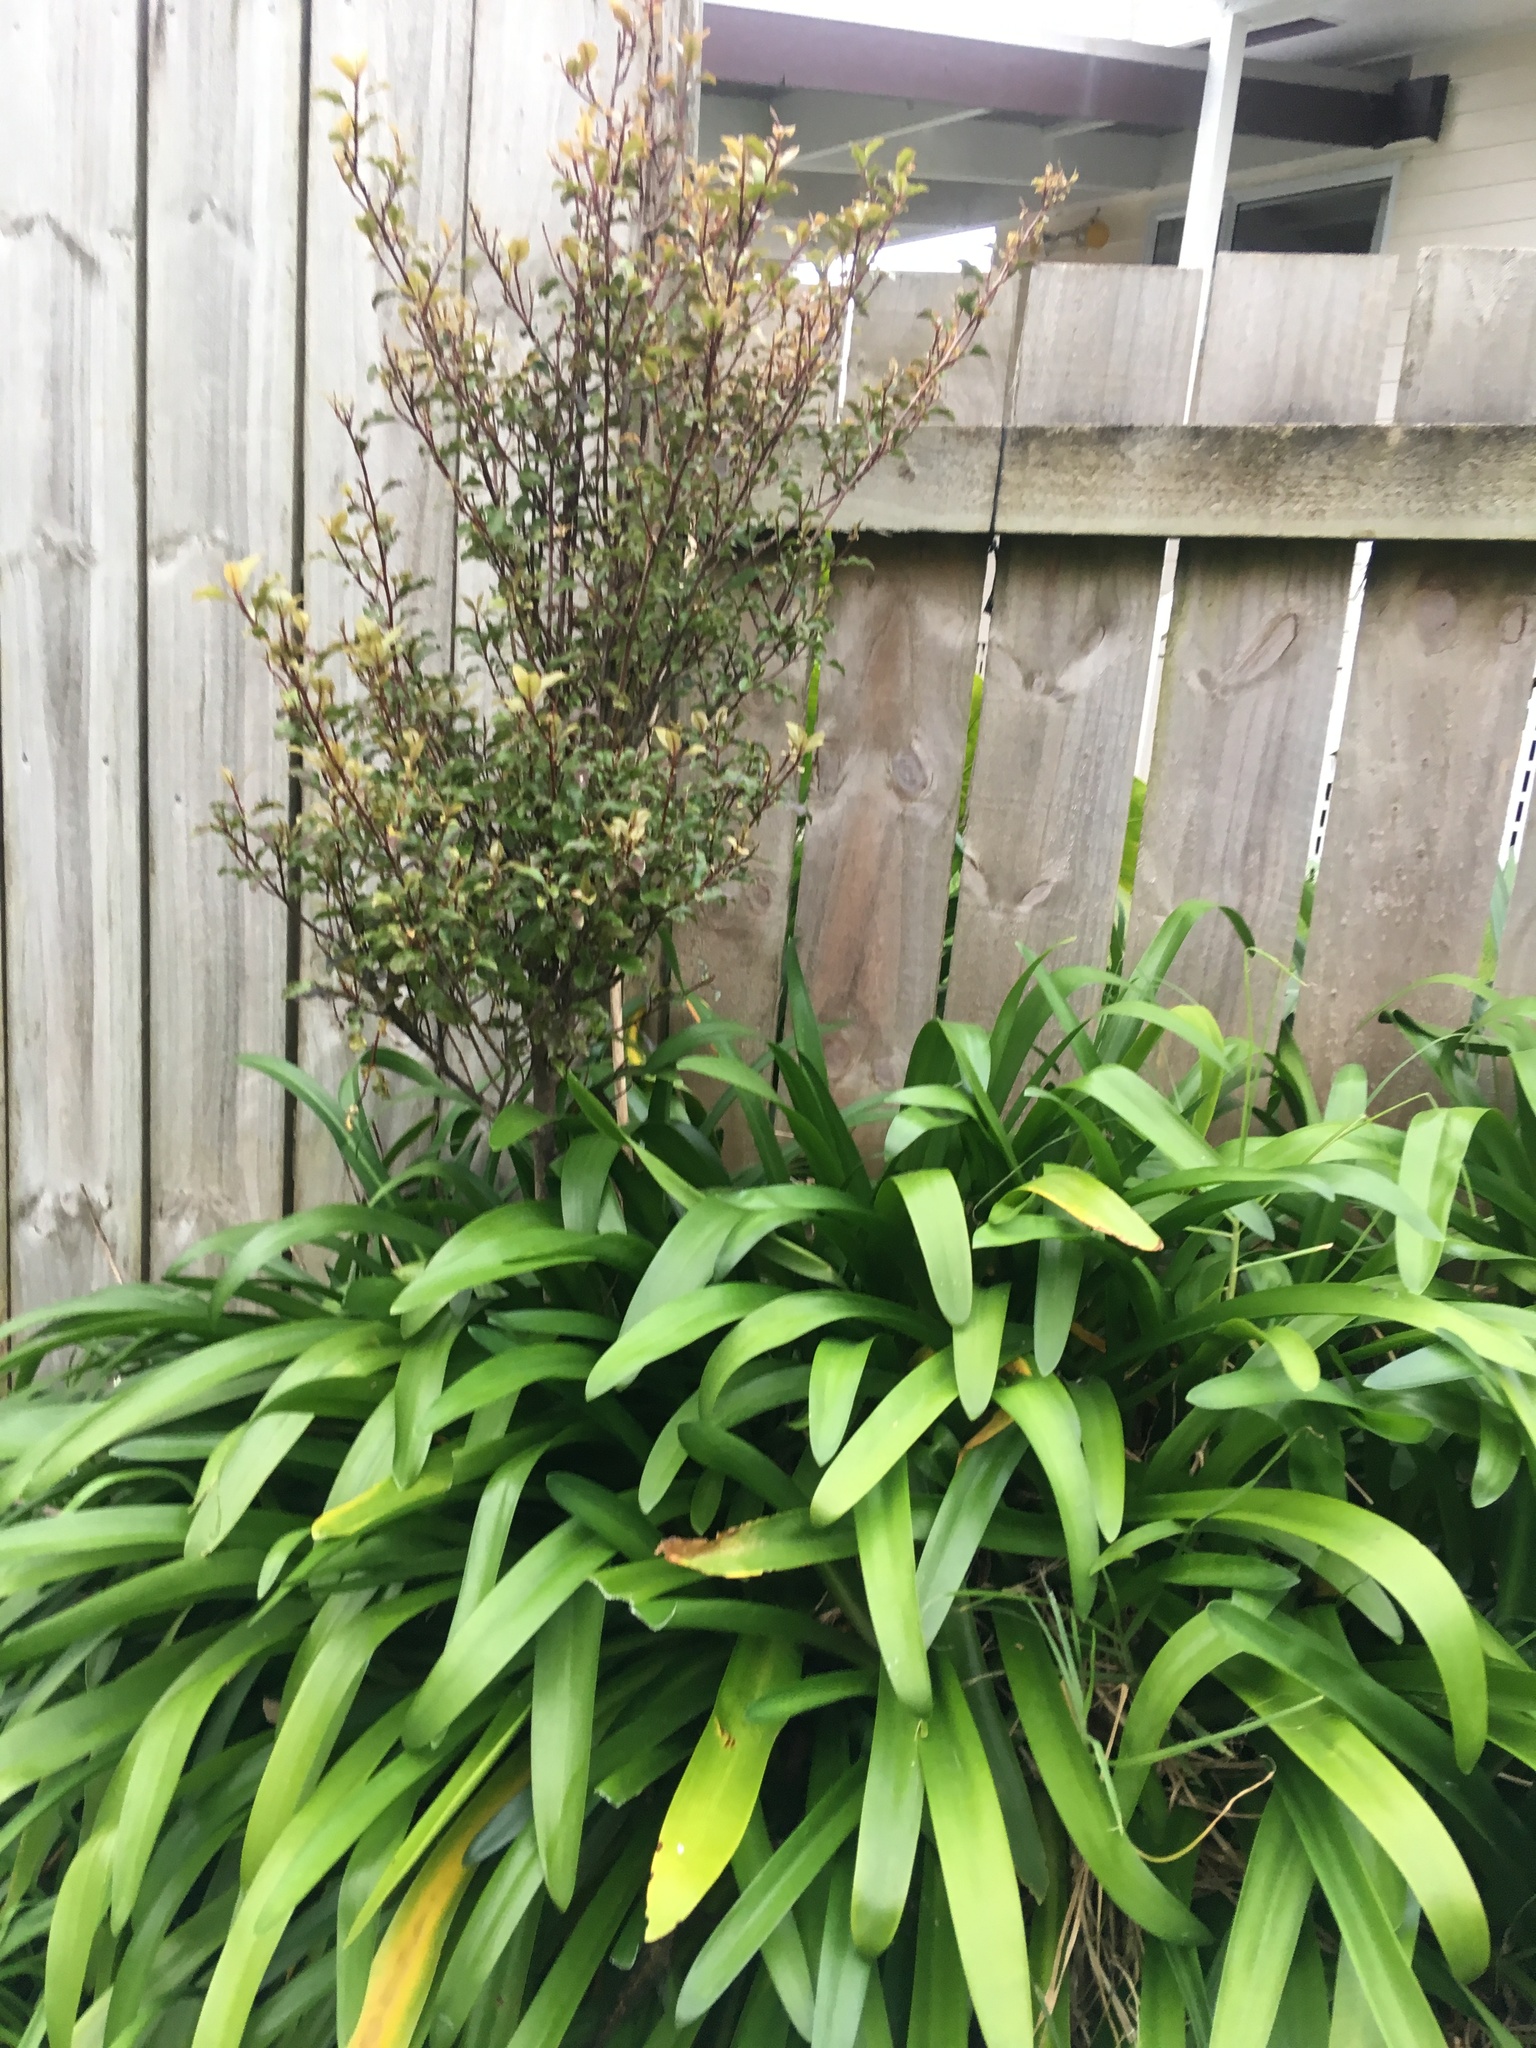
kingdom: Plantae
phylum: Tracheophyta
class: Magnoliopsida
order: Ericales
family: Primulaceae
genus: Myrsine
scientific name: Myrsine australis
